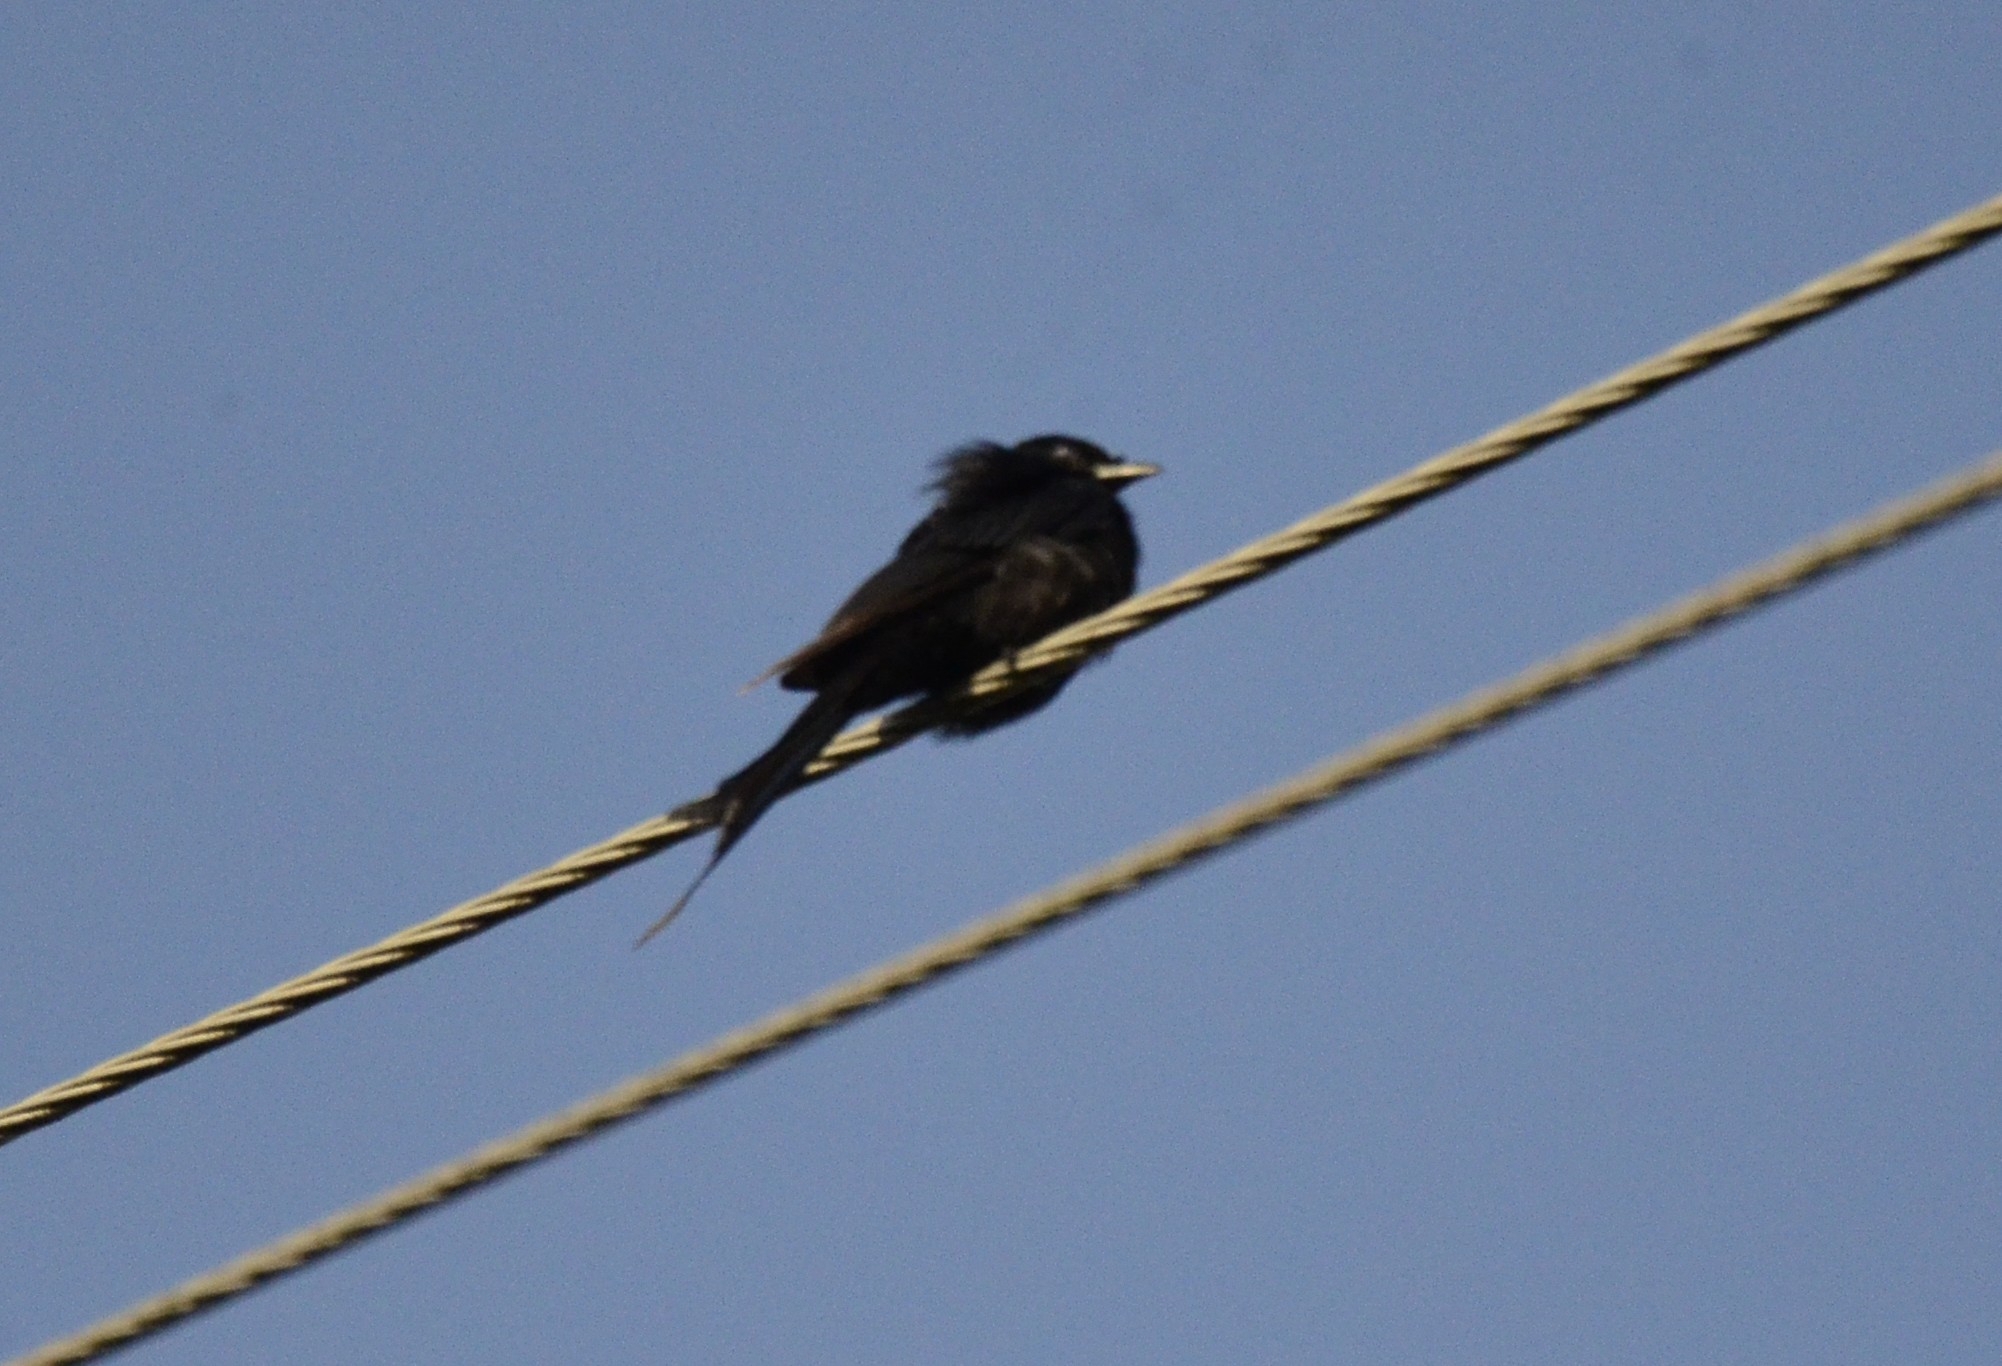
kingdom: Animalia
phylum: Chordata
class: Aves
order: Passeriformes
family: Dicruridae
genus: Dicrurus
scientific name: Dicrurus macrocercus
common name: Black drongo
